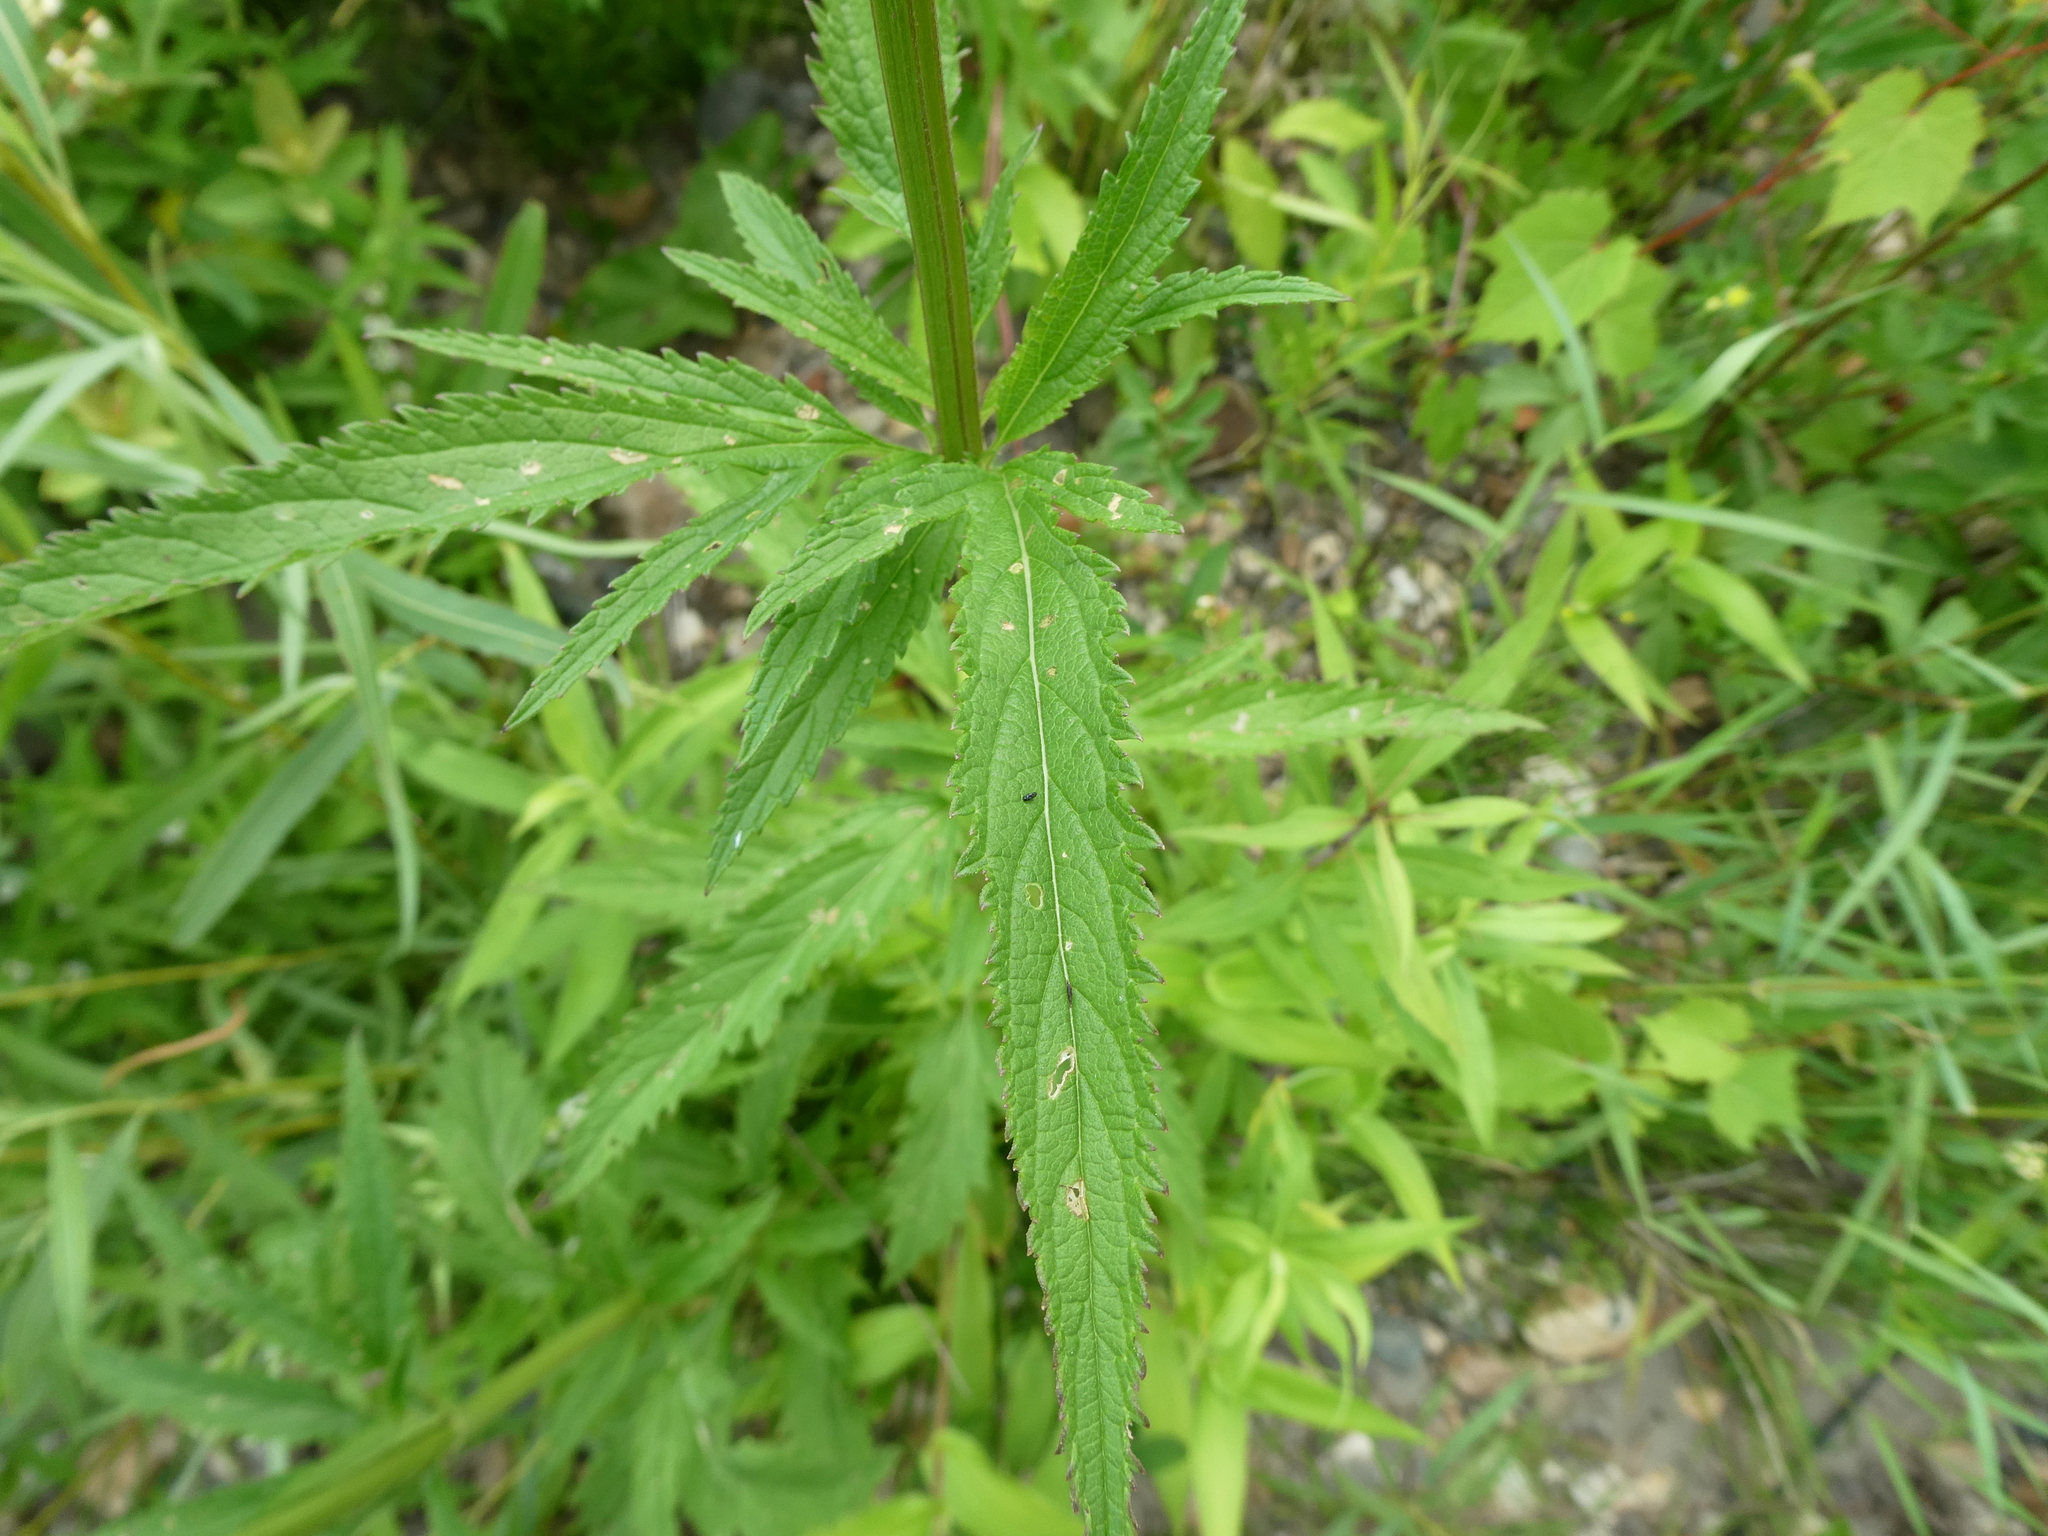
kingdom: Plantae
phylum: Tracheophyta
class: Magnoliopsida
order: Lamiales
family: Verbenaceae
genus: Verbena
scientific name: Verbena hastata
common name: American blue vervain
